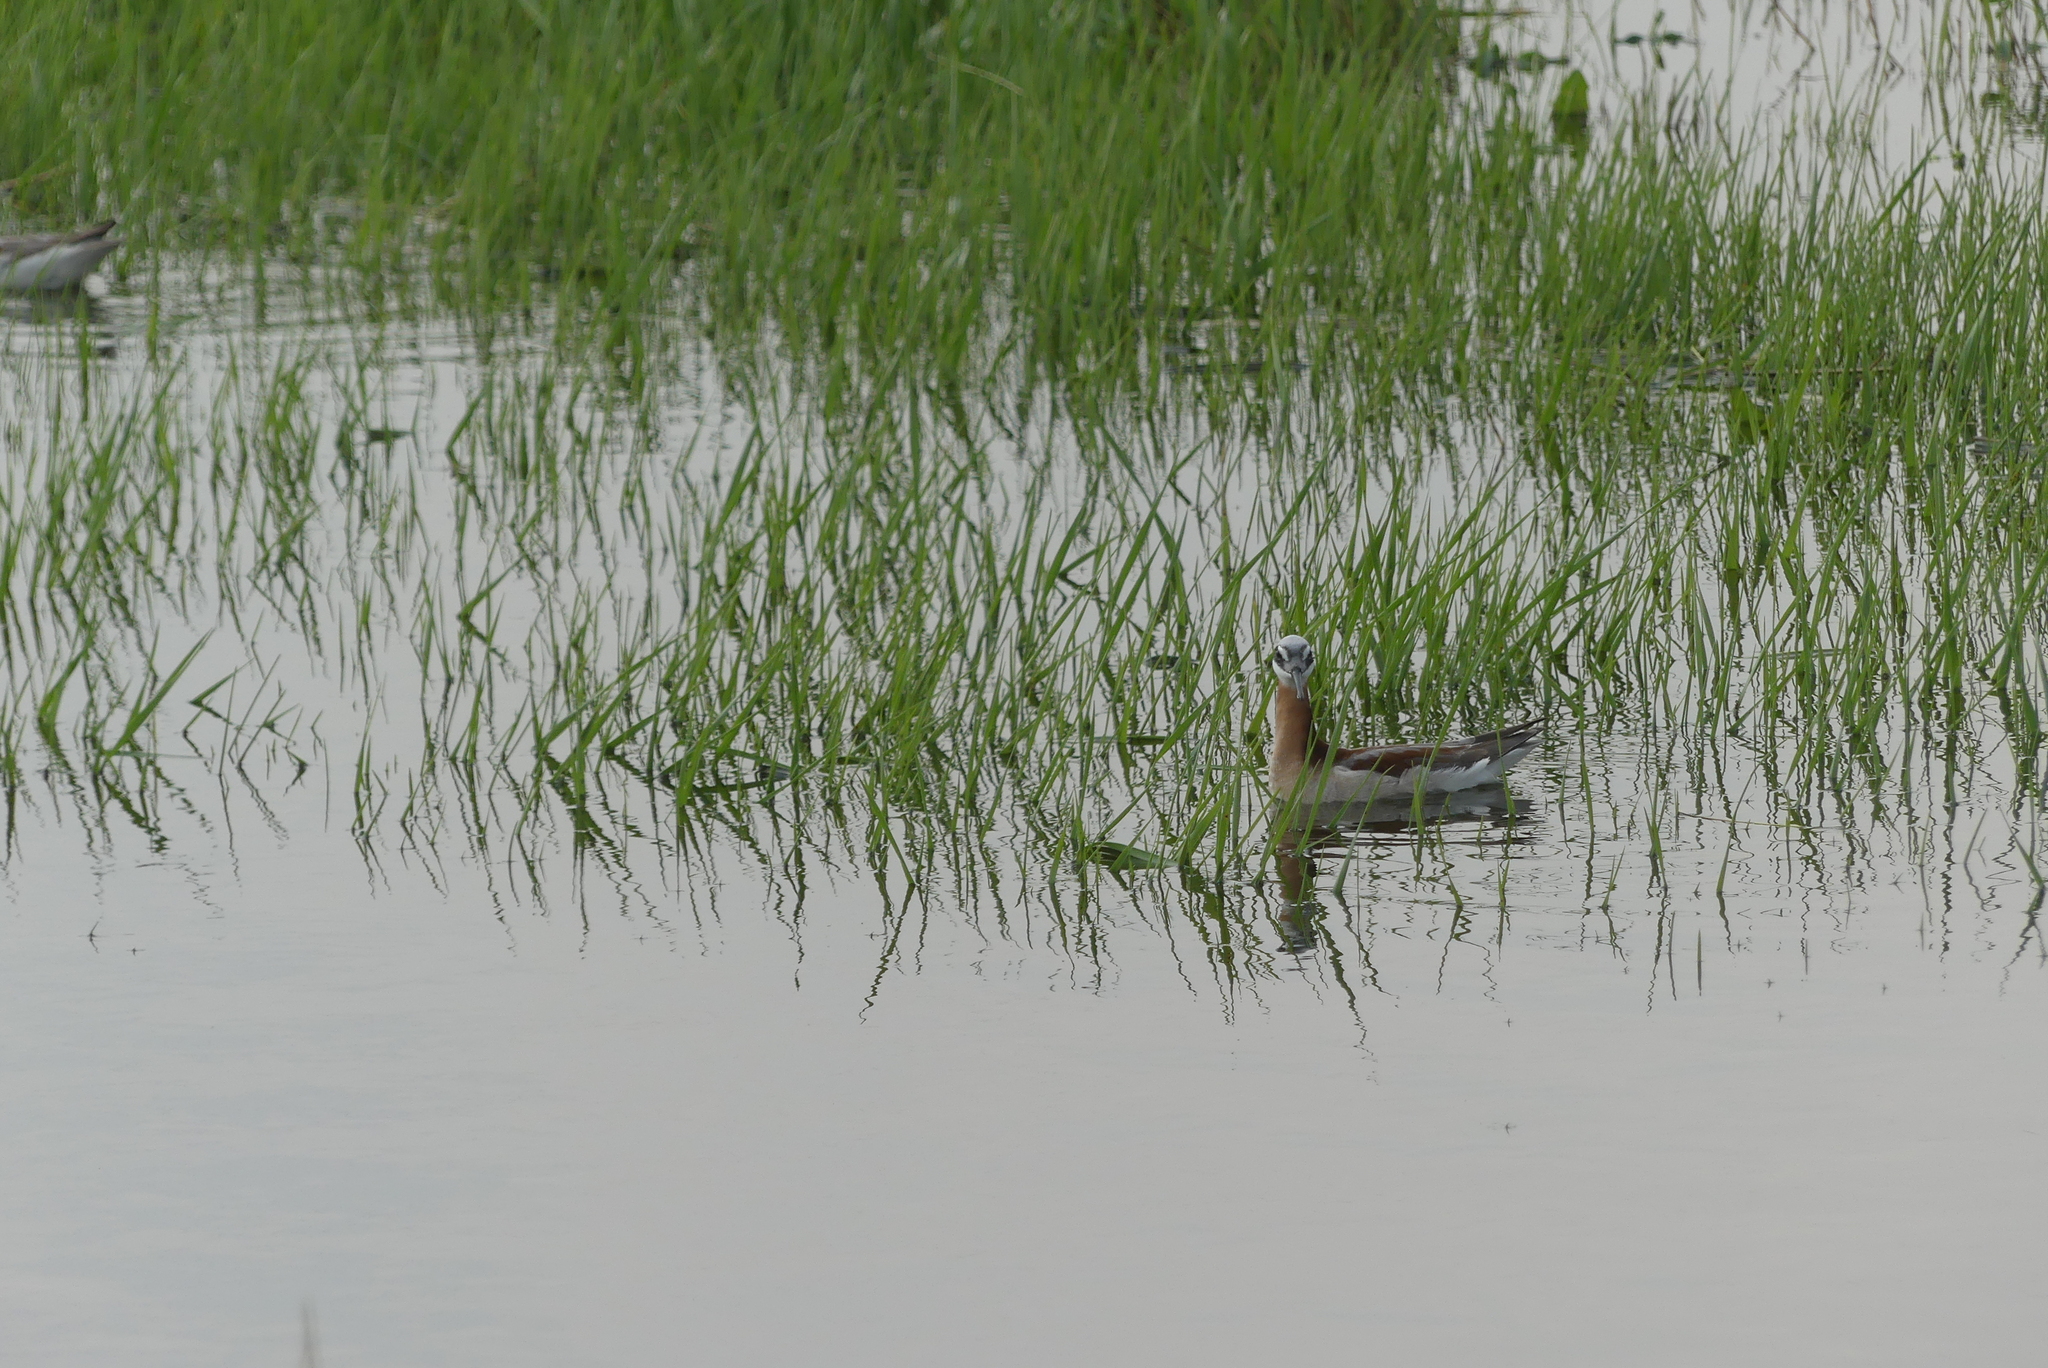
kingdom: Animalia
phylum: Chordata
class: Aves
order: Charadriiformes
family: Scolopacidae
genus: Phalaropus
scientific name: Phalaropus tricolor
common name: Wilson's phalarope
